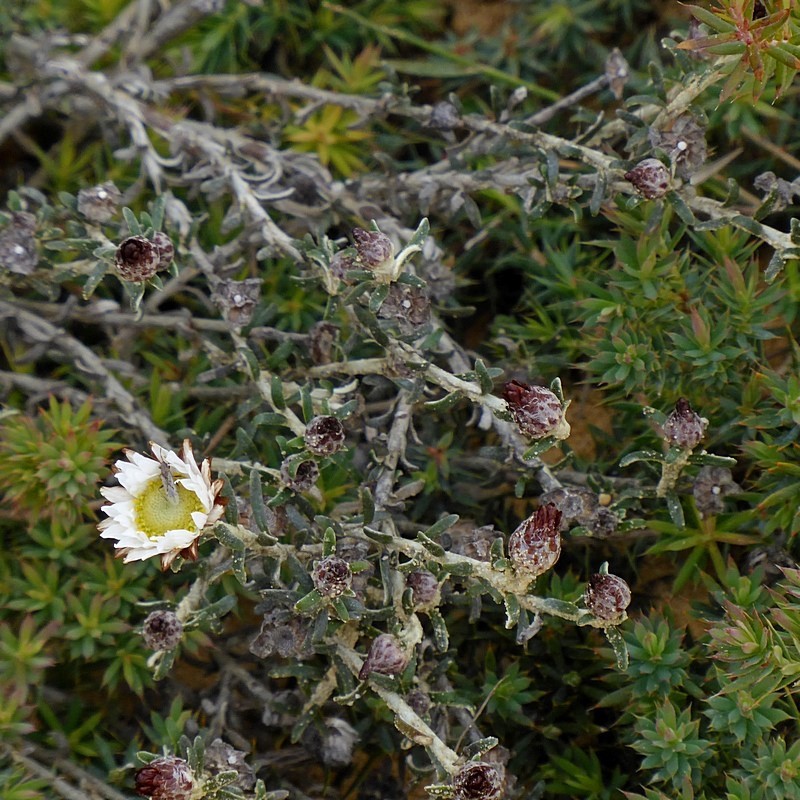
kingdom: Plantae
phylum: Tracheophyta
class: Magnoliopsida
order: Asterales
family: Asteraceae
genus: Argentipallium
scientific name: Argentipallium obtusifolium
